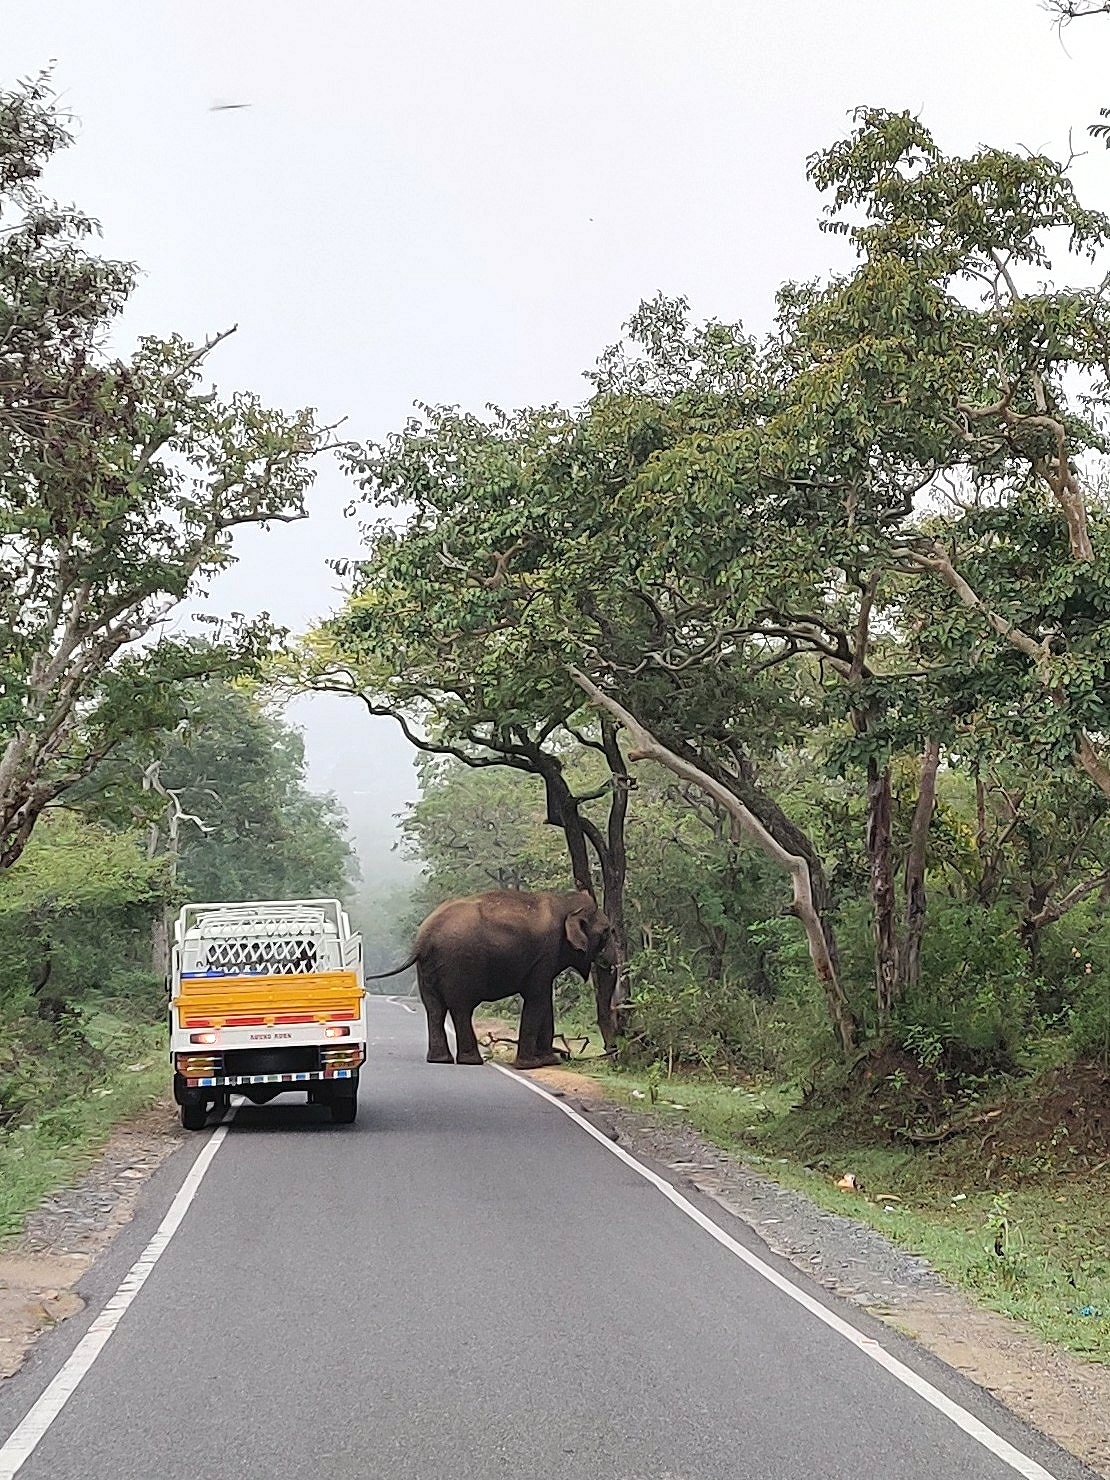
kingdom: Animalia
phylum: Chordata
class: Mammalia
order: Proboscidea
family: Elephantidae
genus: Elephas
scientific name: Elephas maximus
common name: Asian elephant
